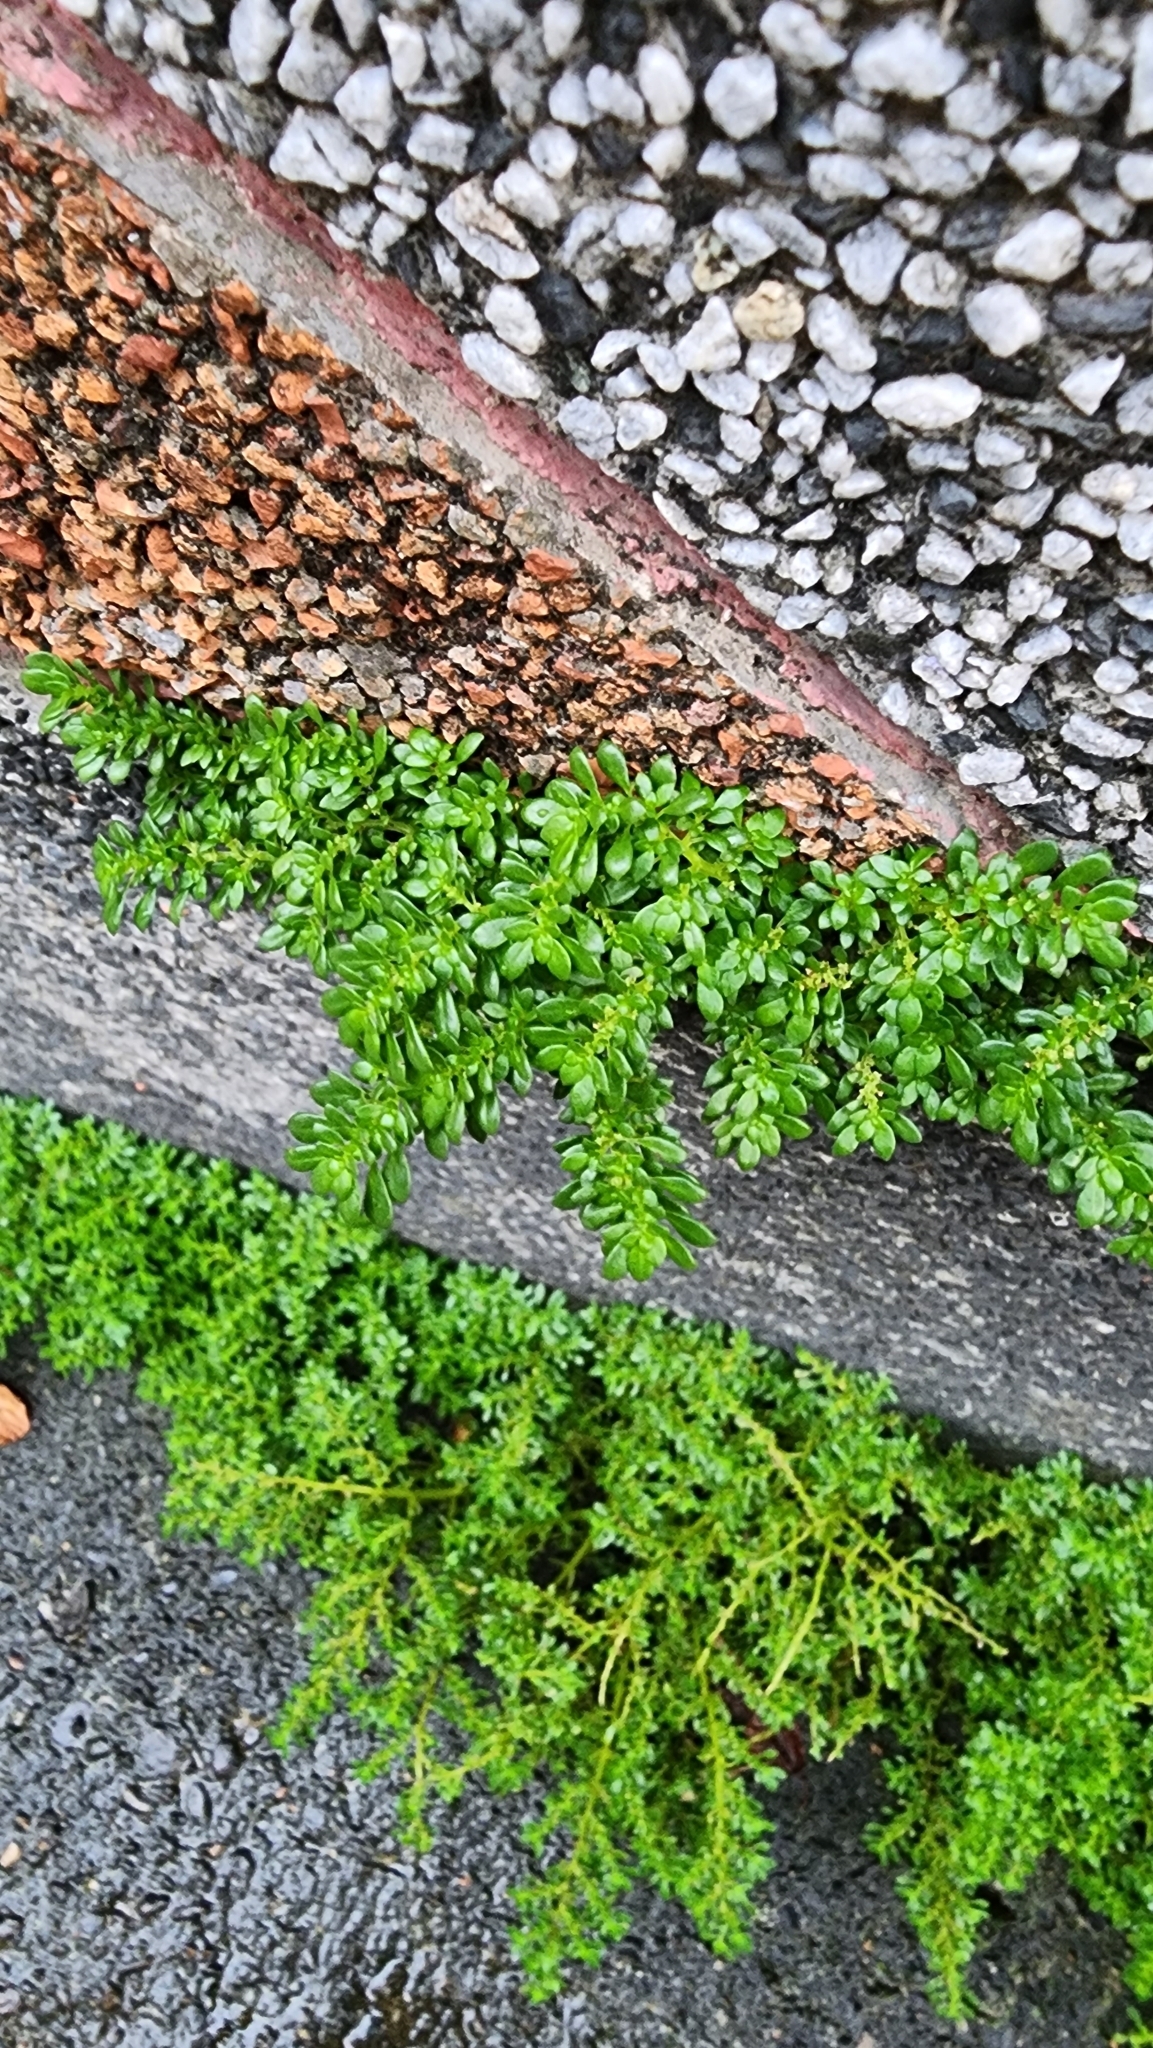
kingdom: Plantae
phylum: Tracheophyta
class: Magnoliopsida
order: Rosales
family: Urticaceae
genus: Pilea
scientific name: Pilea microphylla
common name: Artillery-plant
